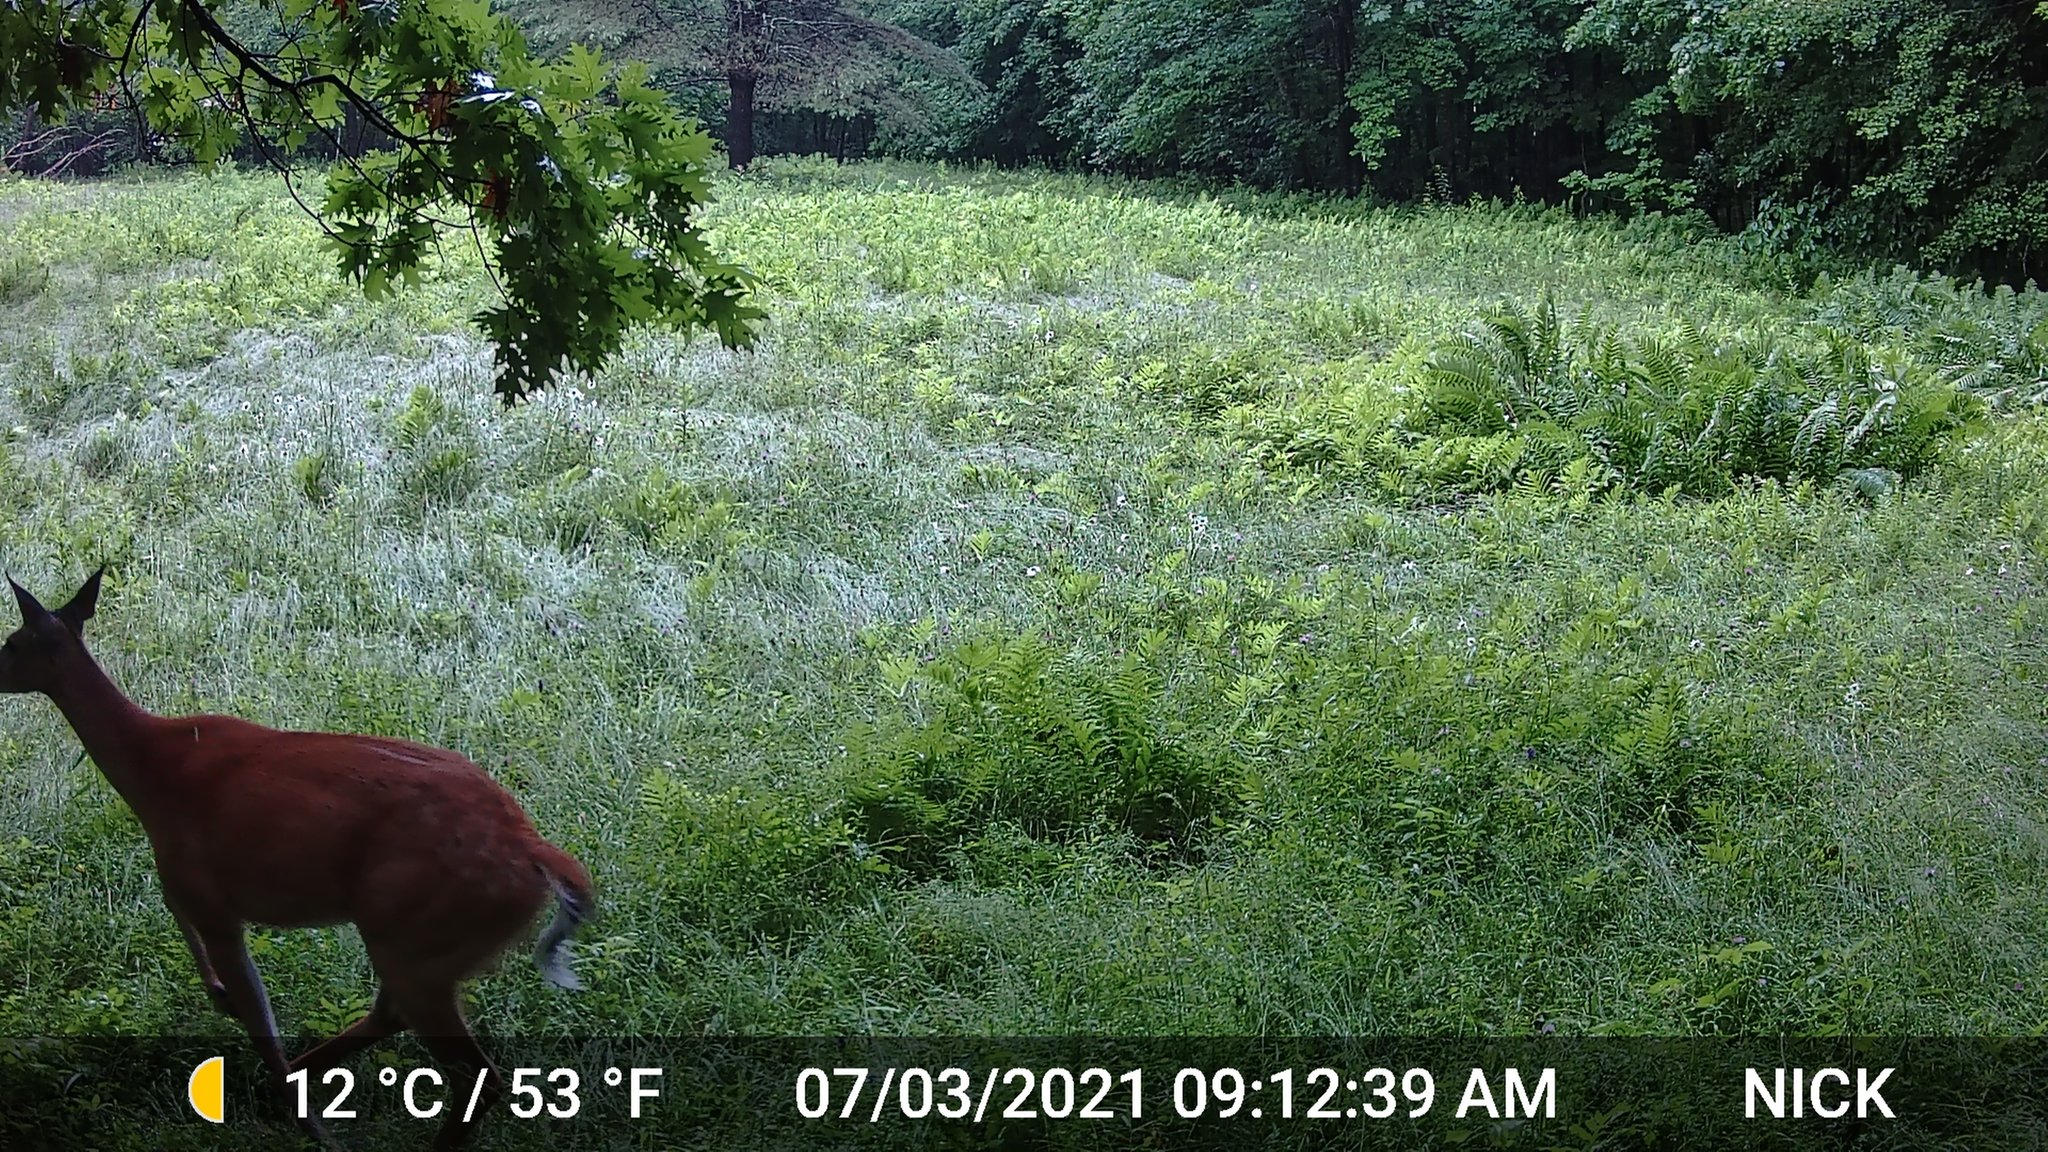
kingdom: Animalia
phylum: Chordata
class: Mammalia
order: Artiodactyla
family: Cervidae
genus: Odocoileus
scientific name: Odocoileus virginianus
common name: White-tailed deer
